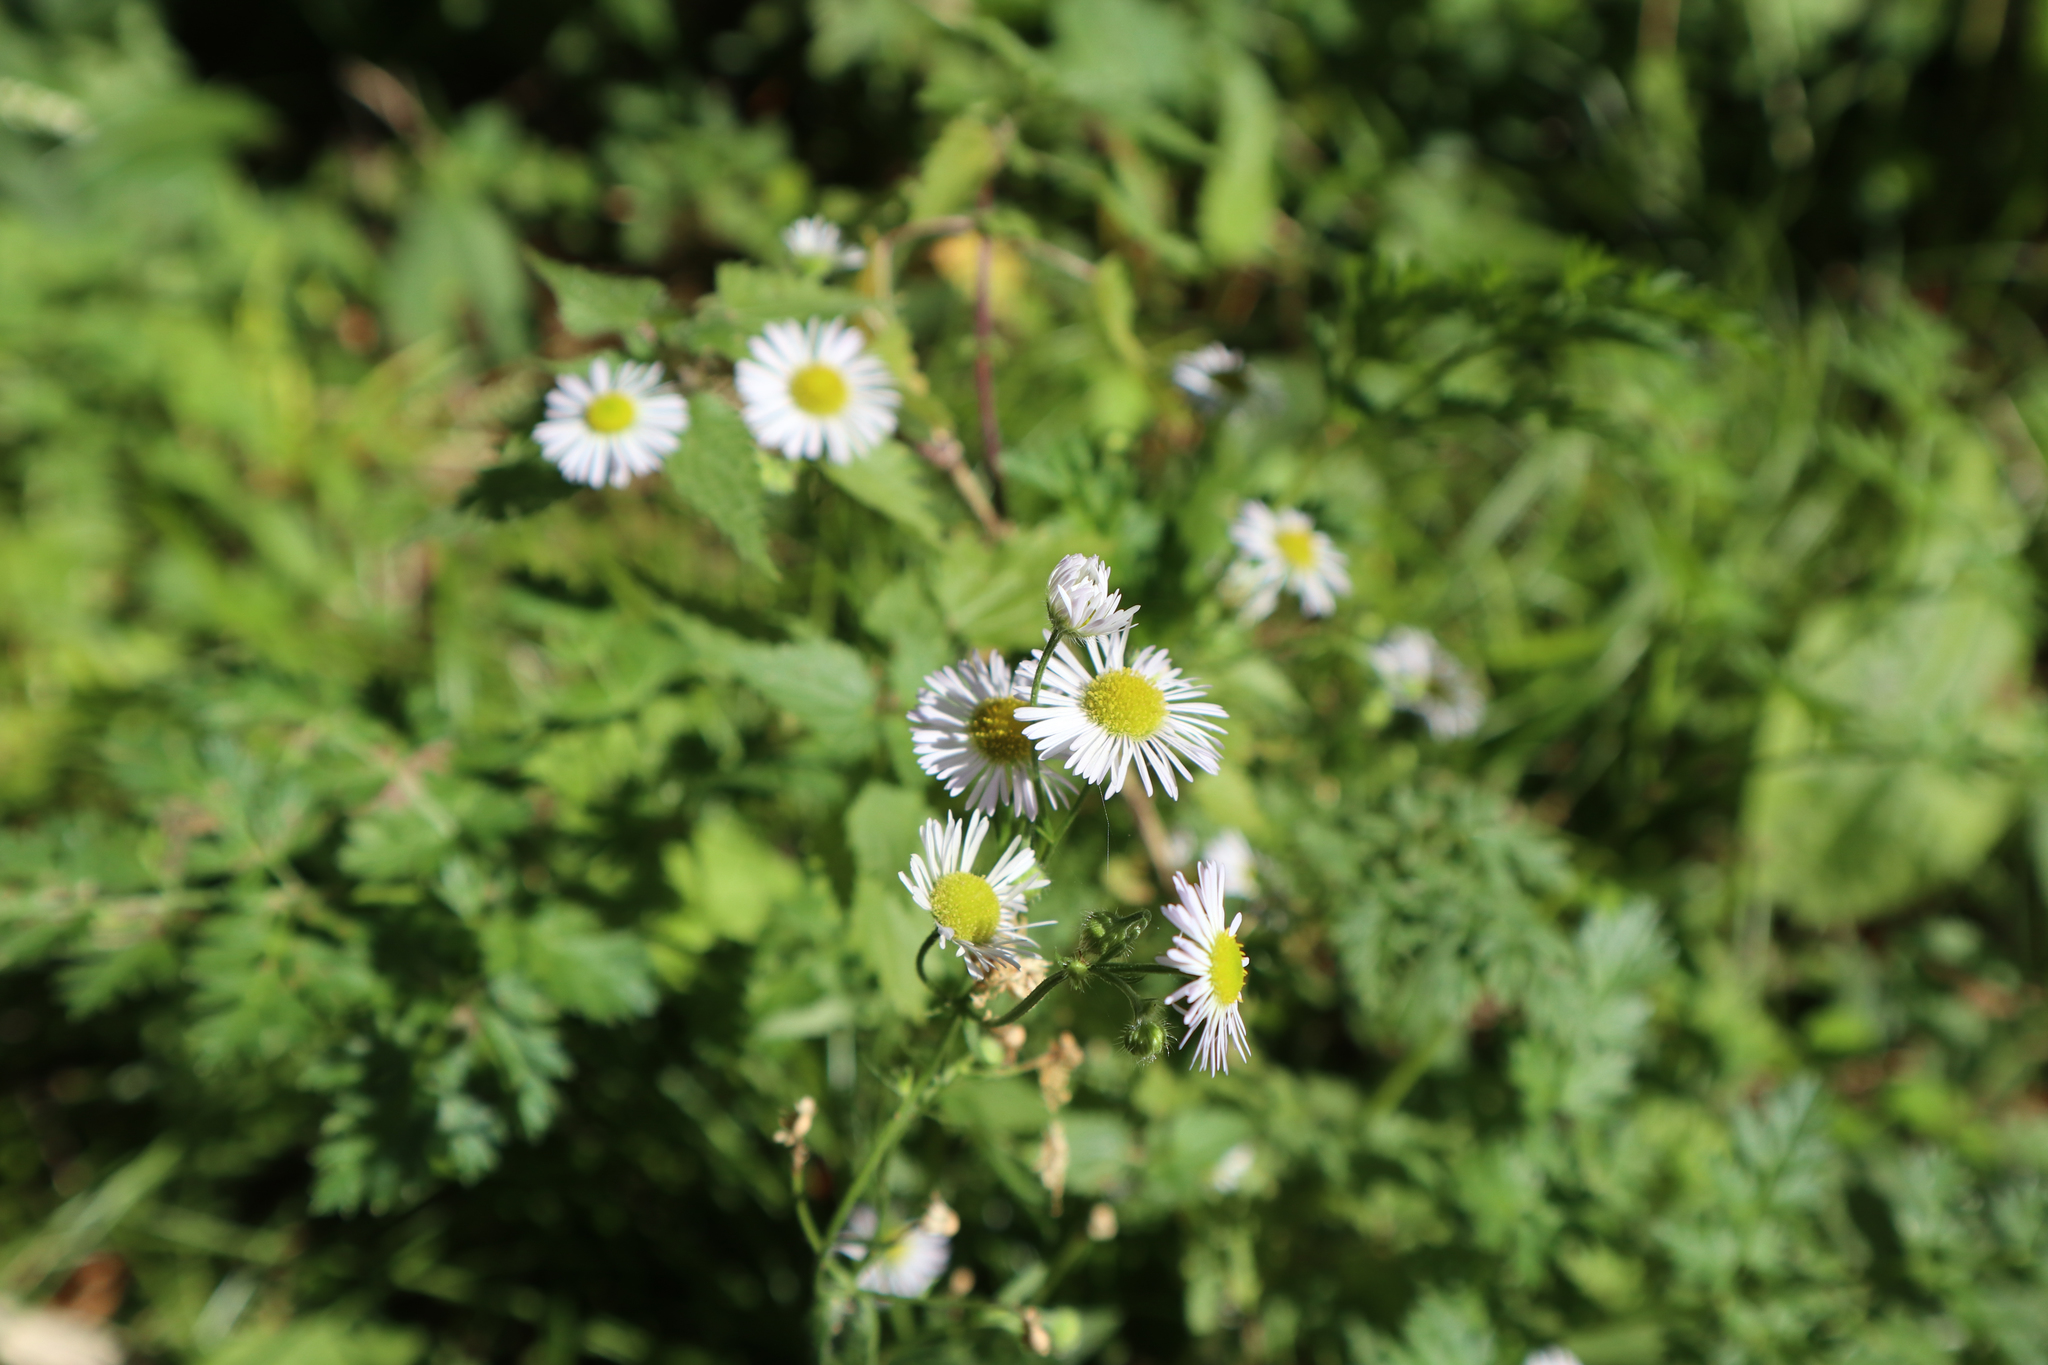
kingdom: Plantae
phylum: Tracheophyta
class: Magnoliopsida
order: Asterales
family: Asteraceae
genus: Erigeron
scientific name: Erigeron annuus
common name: Tall fleabane
